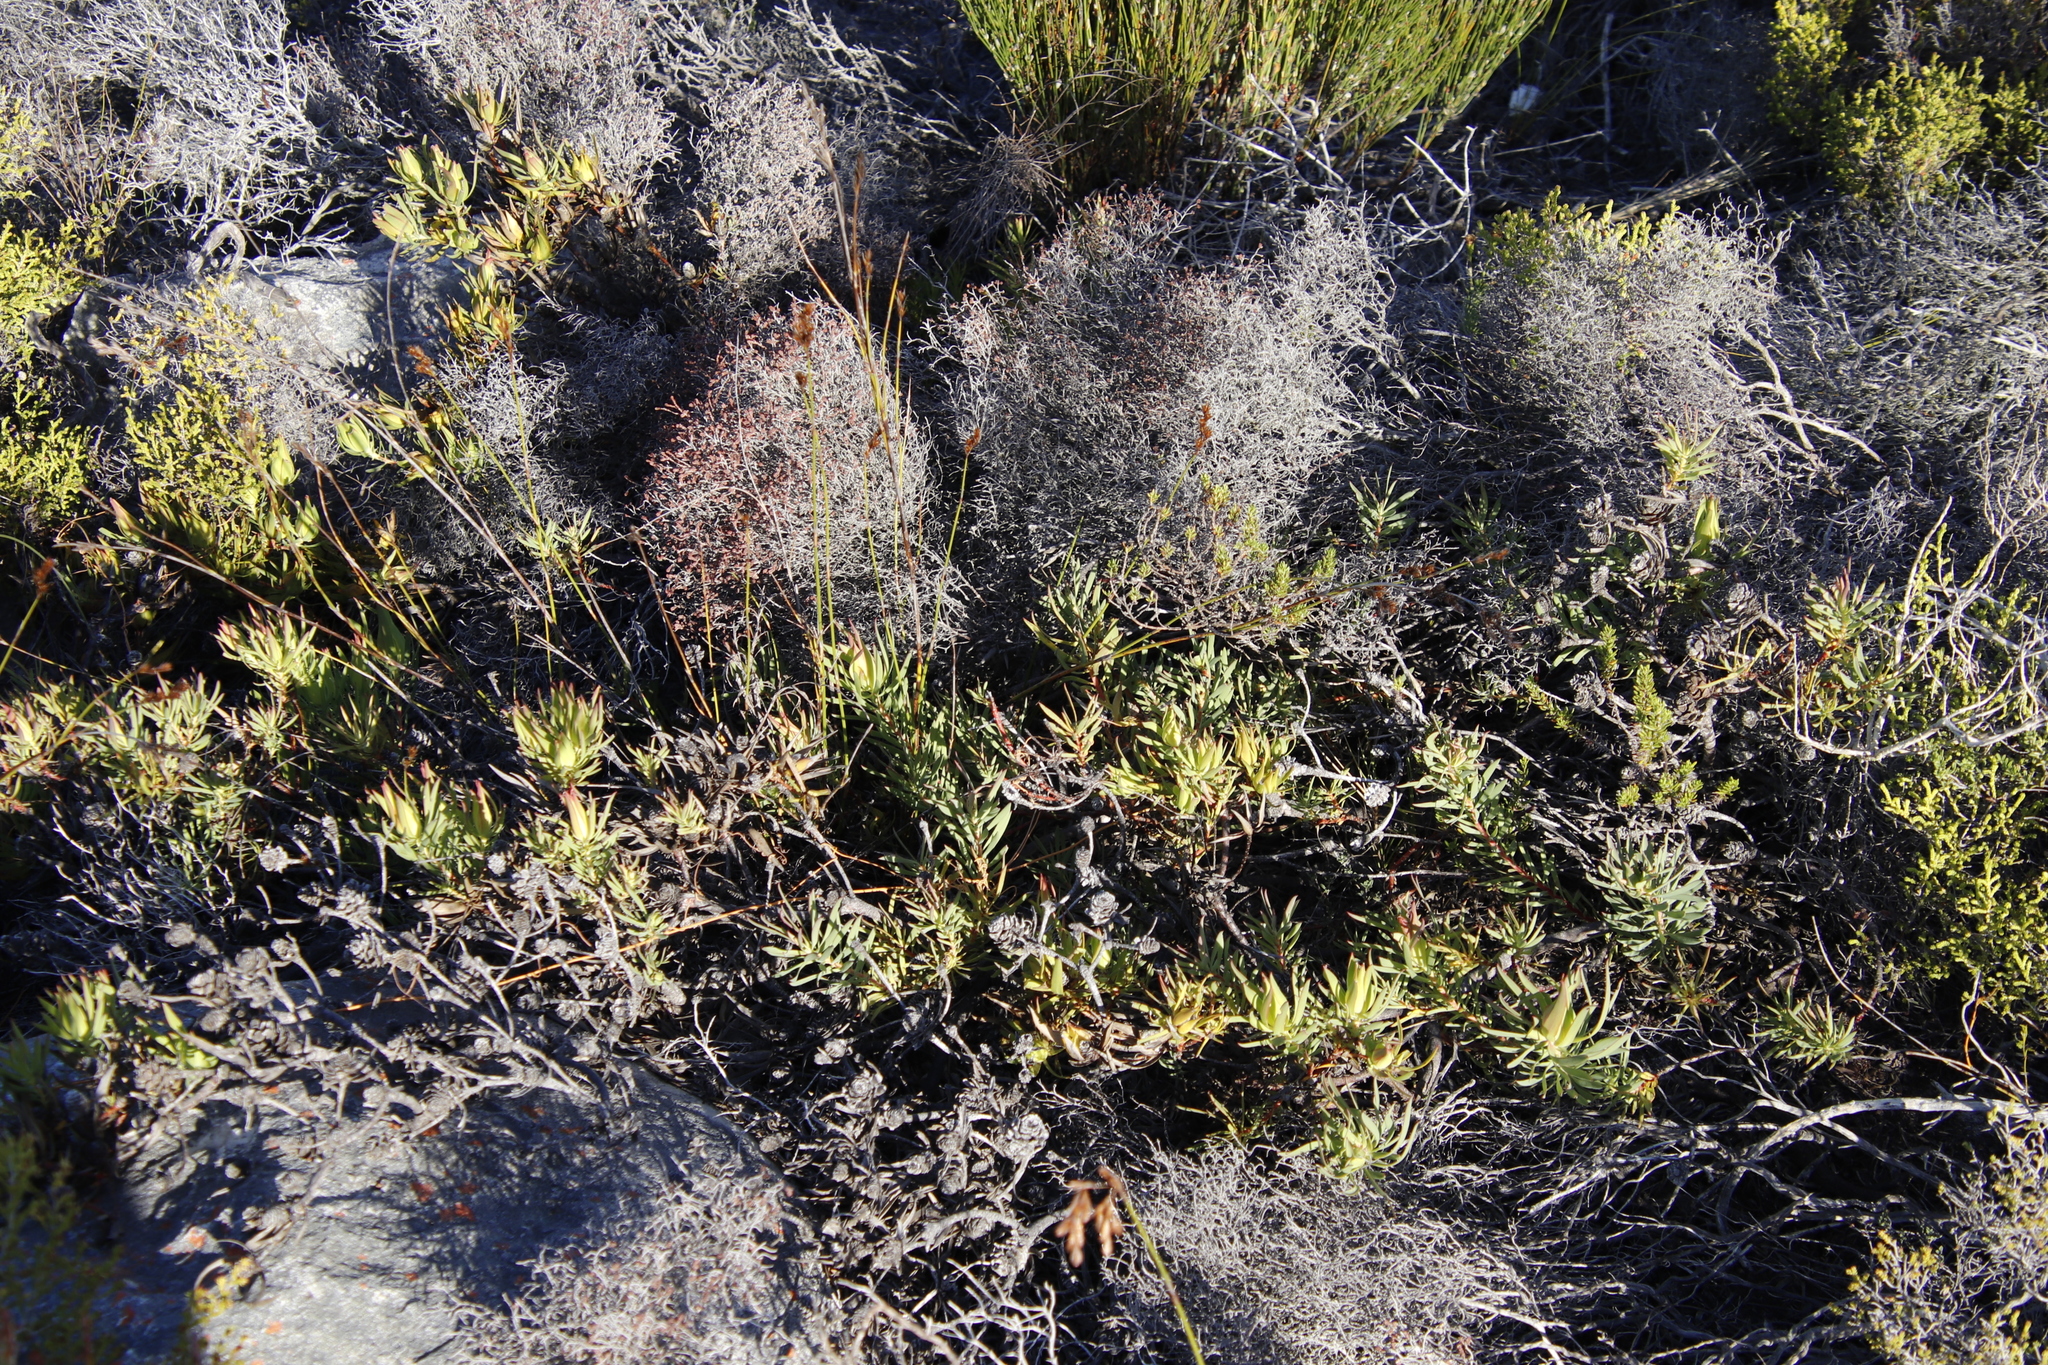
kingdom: Plantae
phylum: Tracheophyta
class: Magnoliopsida
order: Proteales
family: Proteaceae
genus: Leucadendron
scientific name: Leucadendron salignum
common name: Common sunshine conebush
